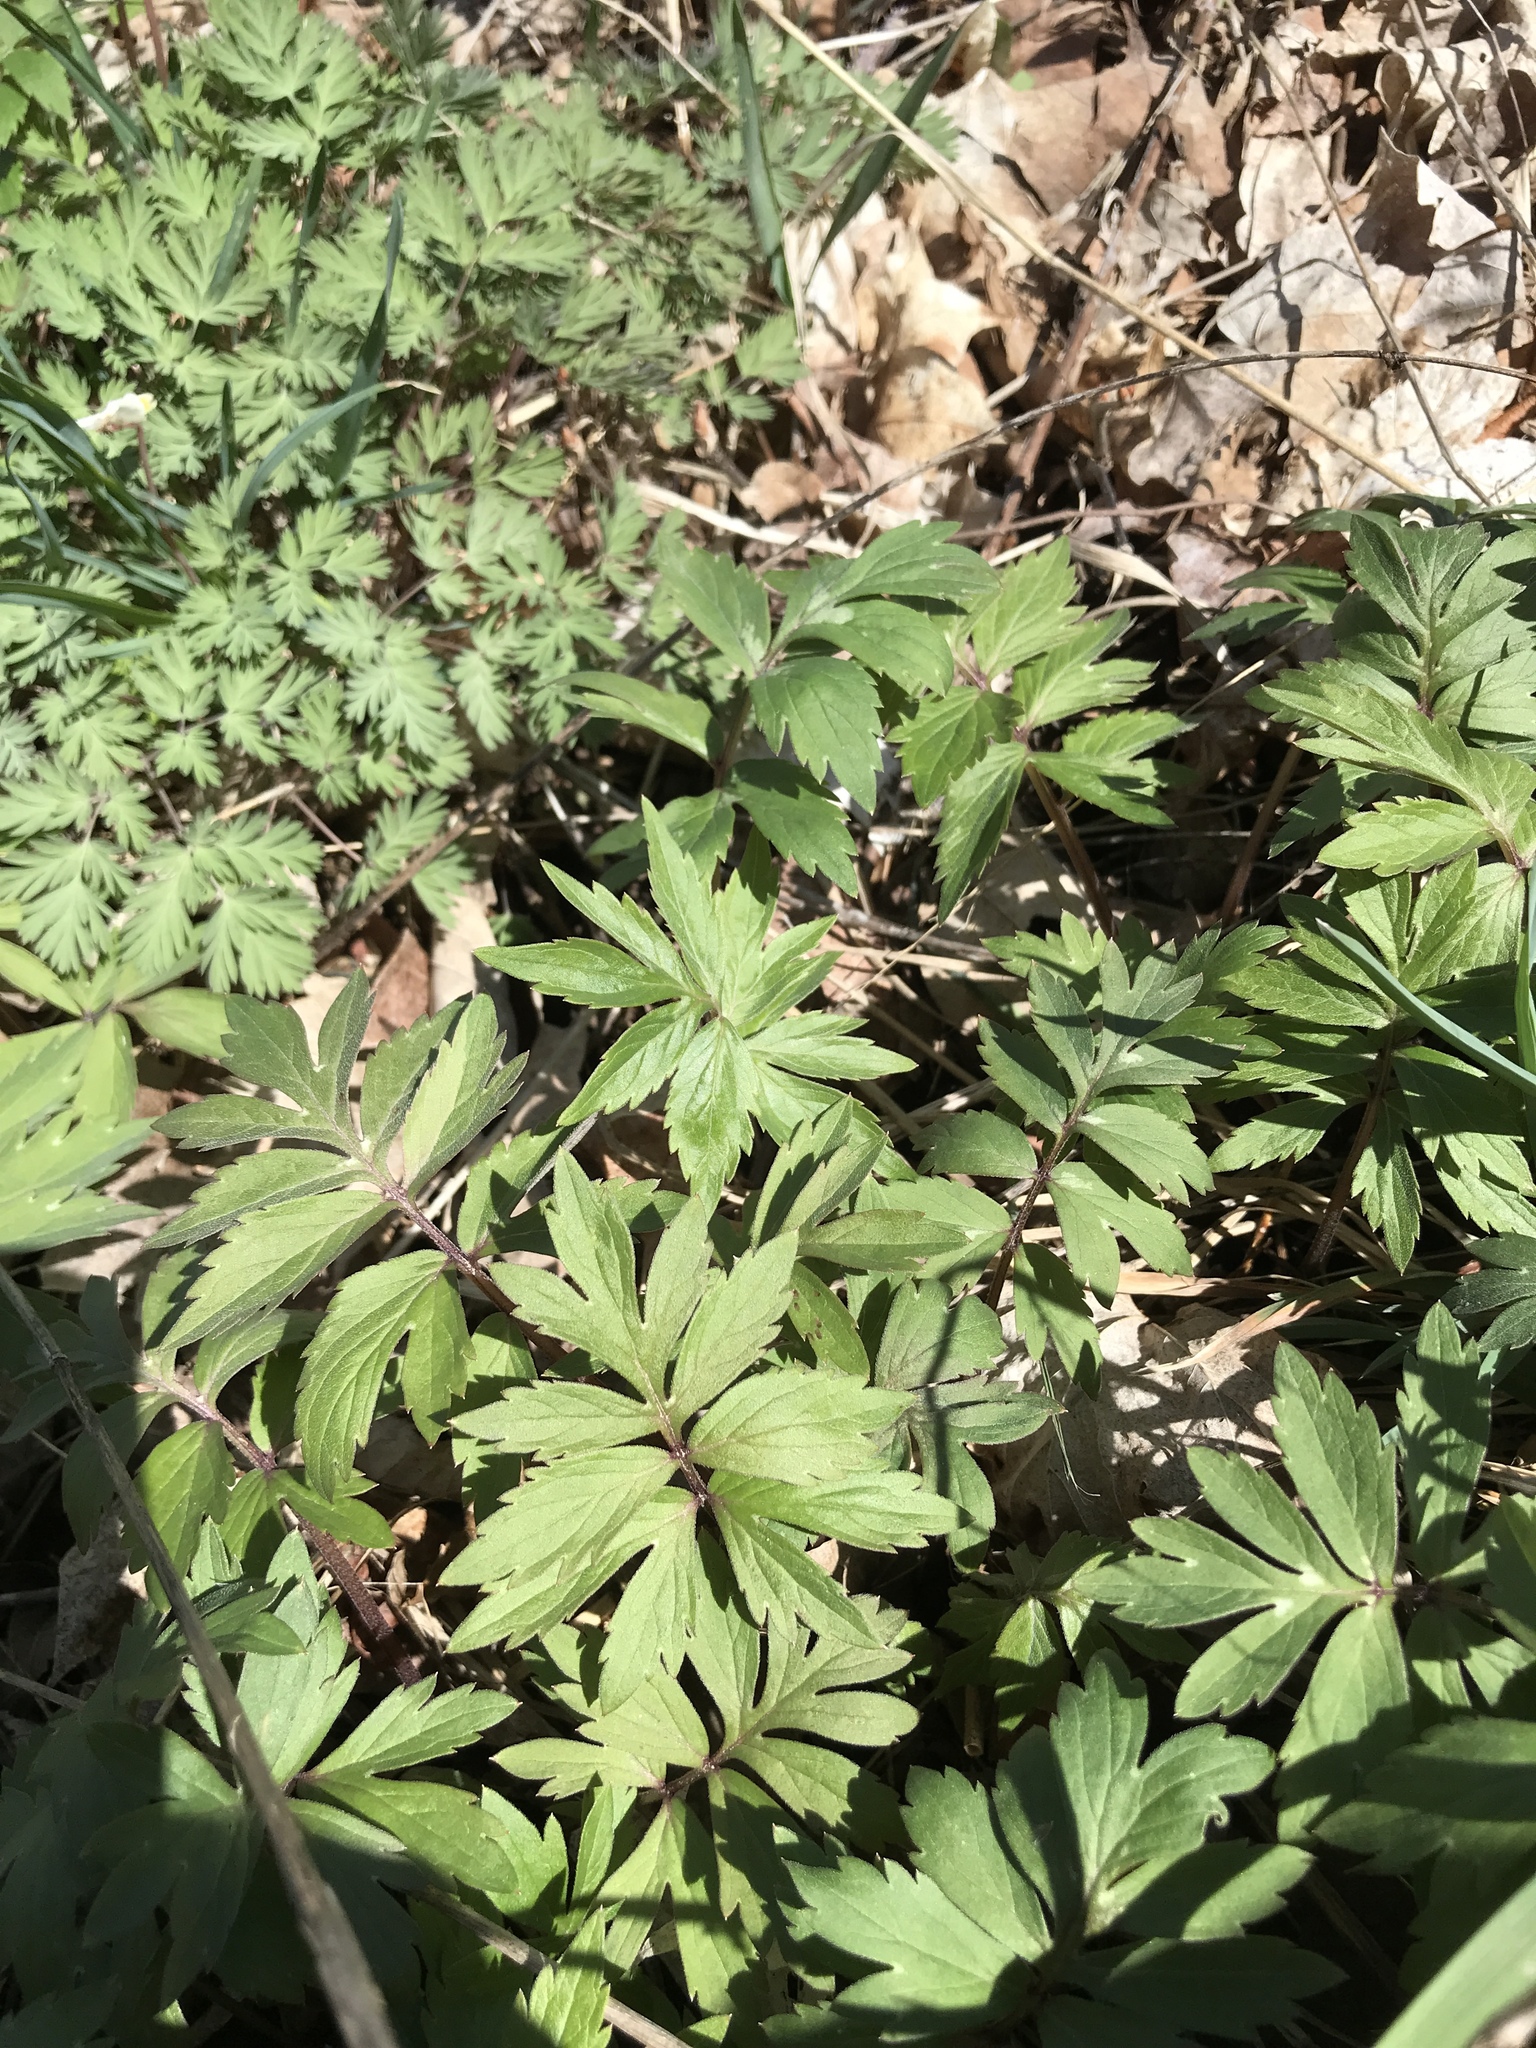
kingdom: Plantae
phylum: Tracheophyta
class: Magnoliopsida
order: Boraginales
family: Hydrophyllaceae
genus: Hydrophyllum
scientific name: Hydrophyllum virginianum
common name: Virginia waterleaf
